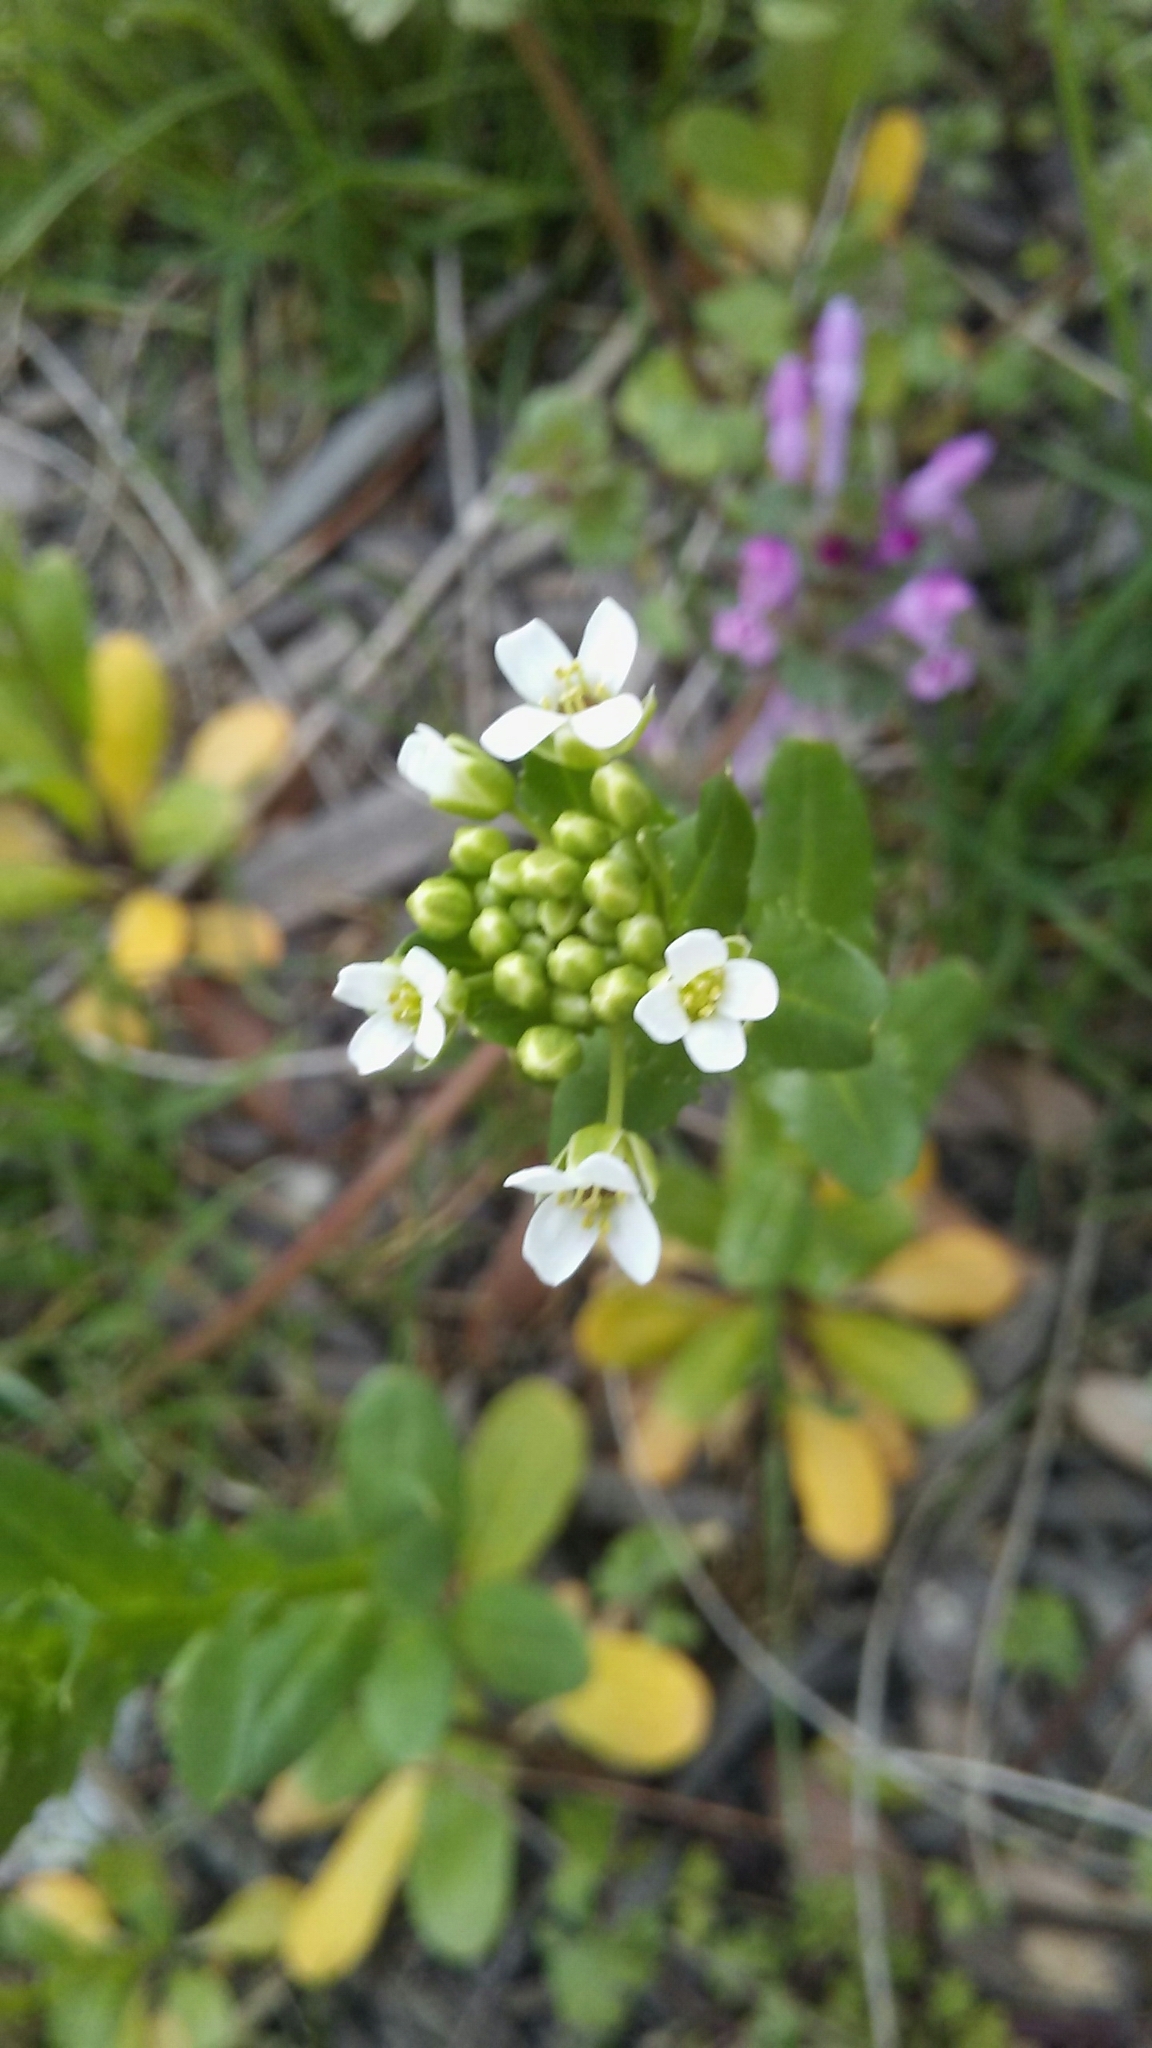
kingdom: Plantae
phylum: Tracheophyta
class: Magnoliopsida
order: Brassicales
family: Brassicaceae
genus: Thlaspi
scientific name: Thlaspi arvense
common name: Field pennycress
